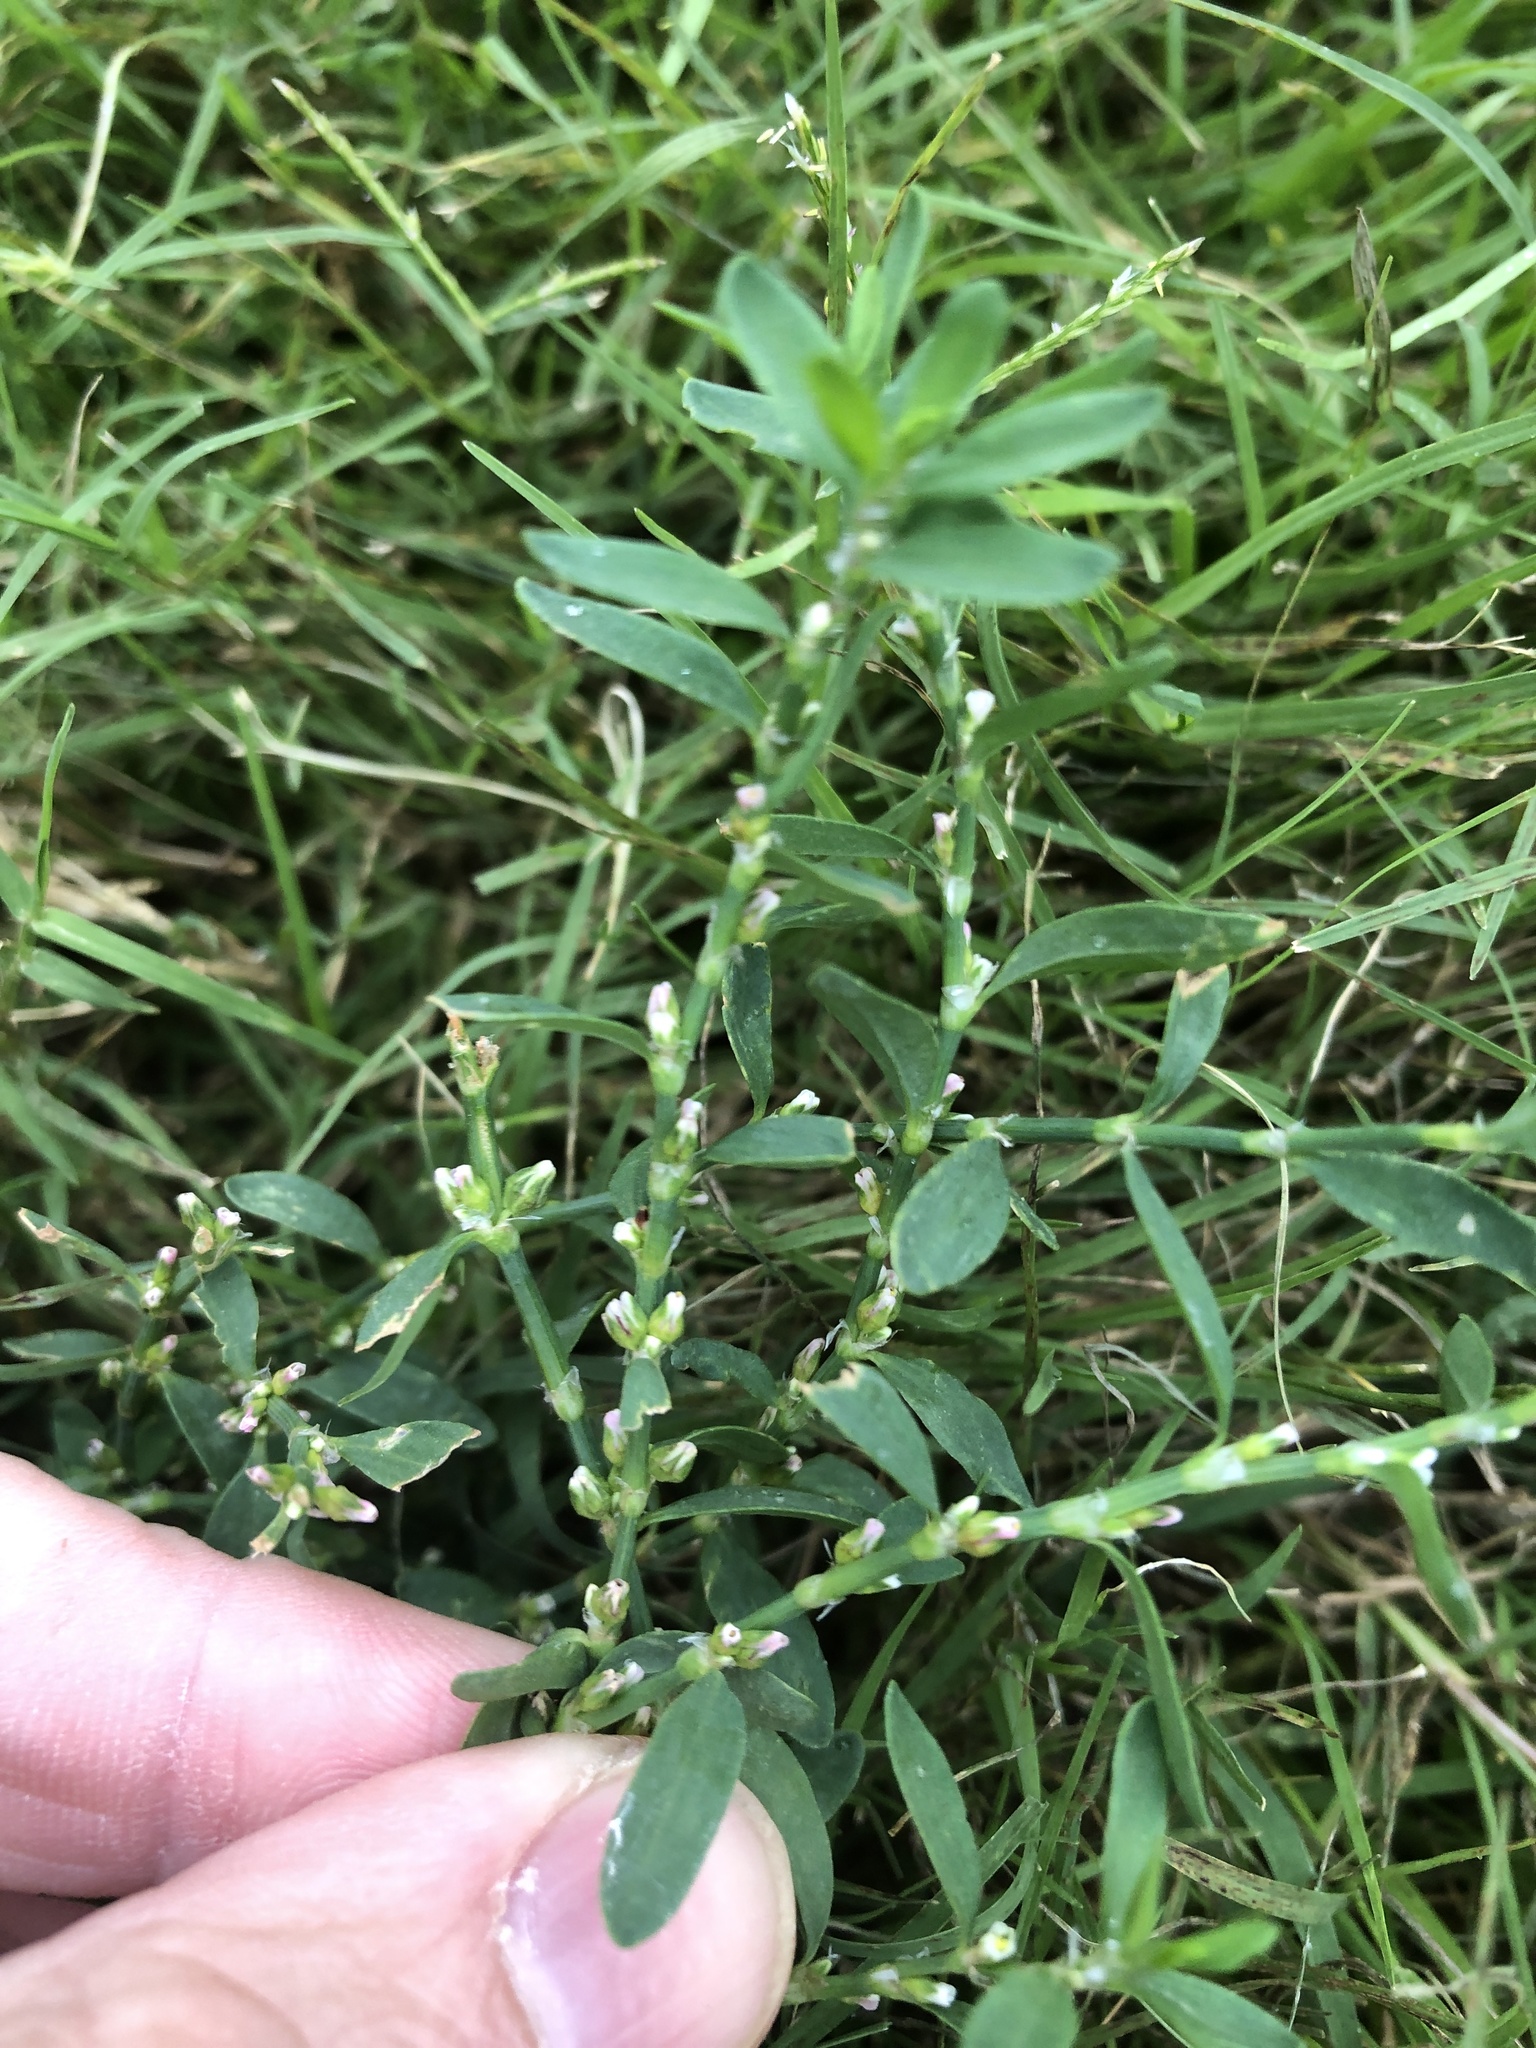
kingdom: Plantae
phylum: Tracheophyta
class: Magnoliopsida
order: Caryophyllales
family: Polygonaceae
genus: Polygonum
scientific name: Polygonum aviculare
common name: Prostrate knotweed
